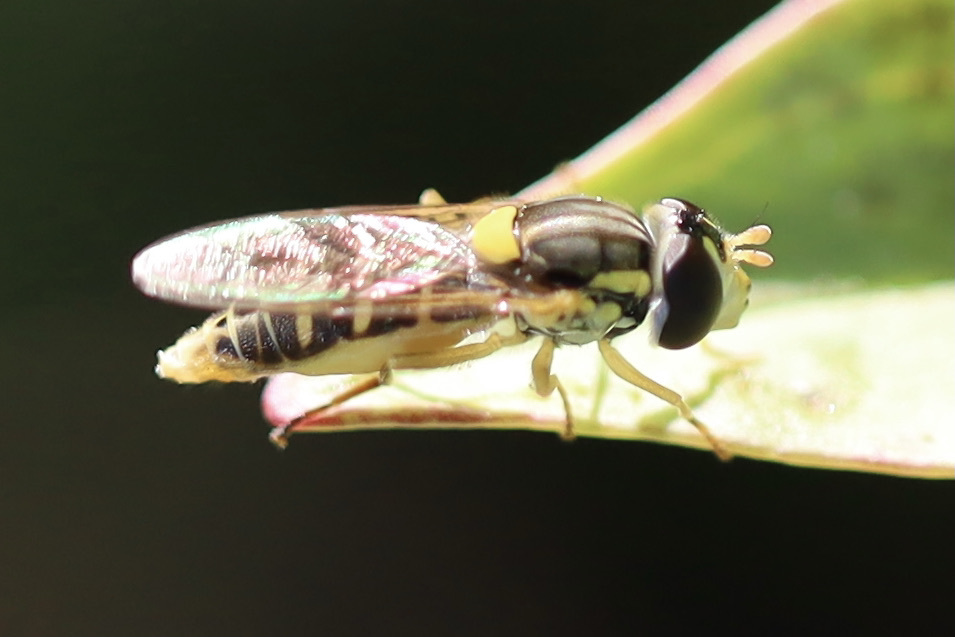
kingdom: Animalia
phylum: Arthropoda
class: Insecta
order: Diptera
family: Syrphidae
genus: Sphaerophoria
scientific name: Sphaerophoria sulphuripes
